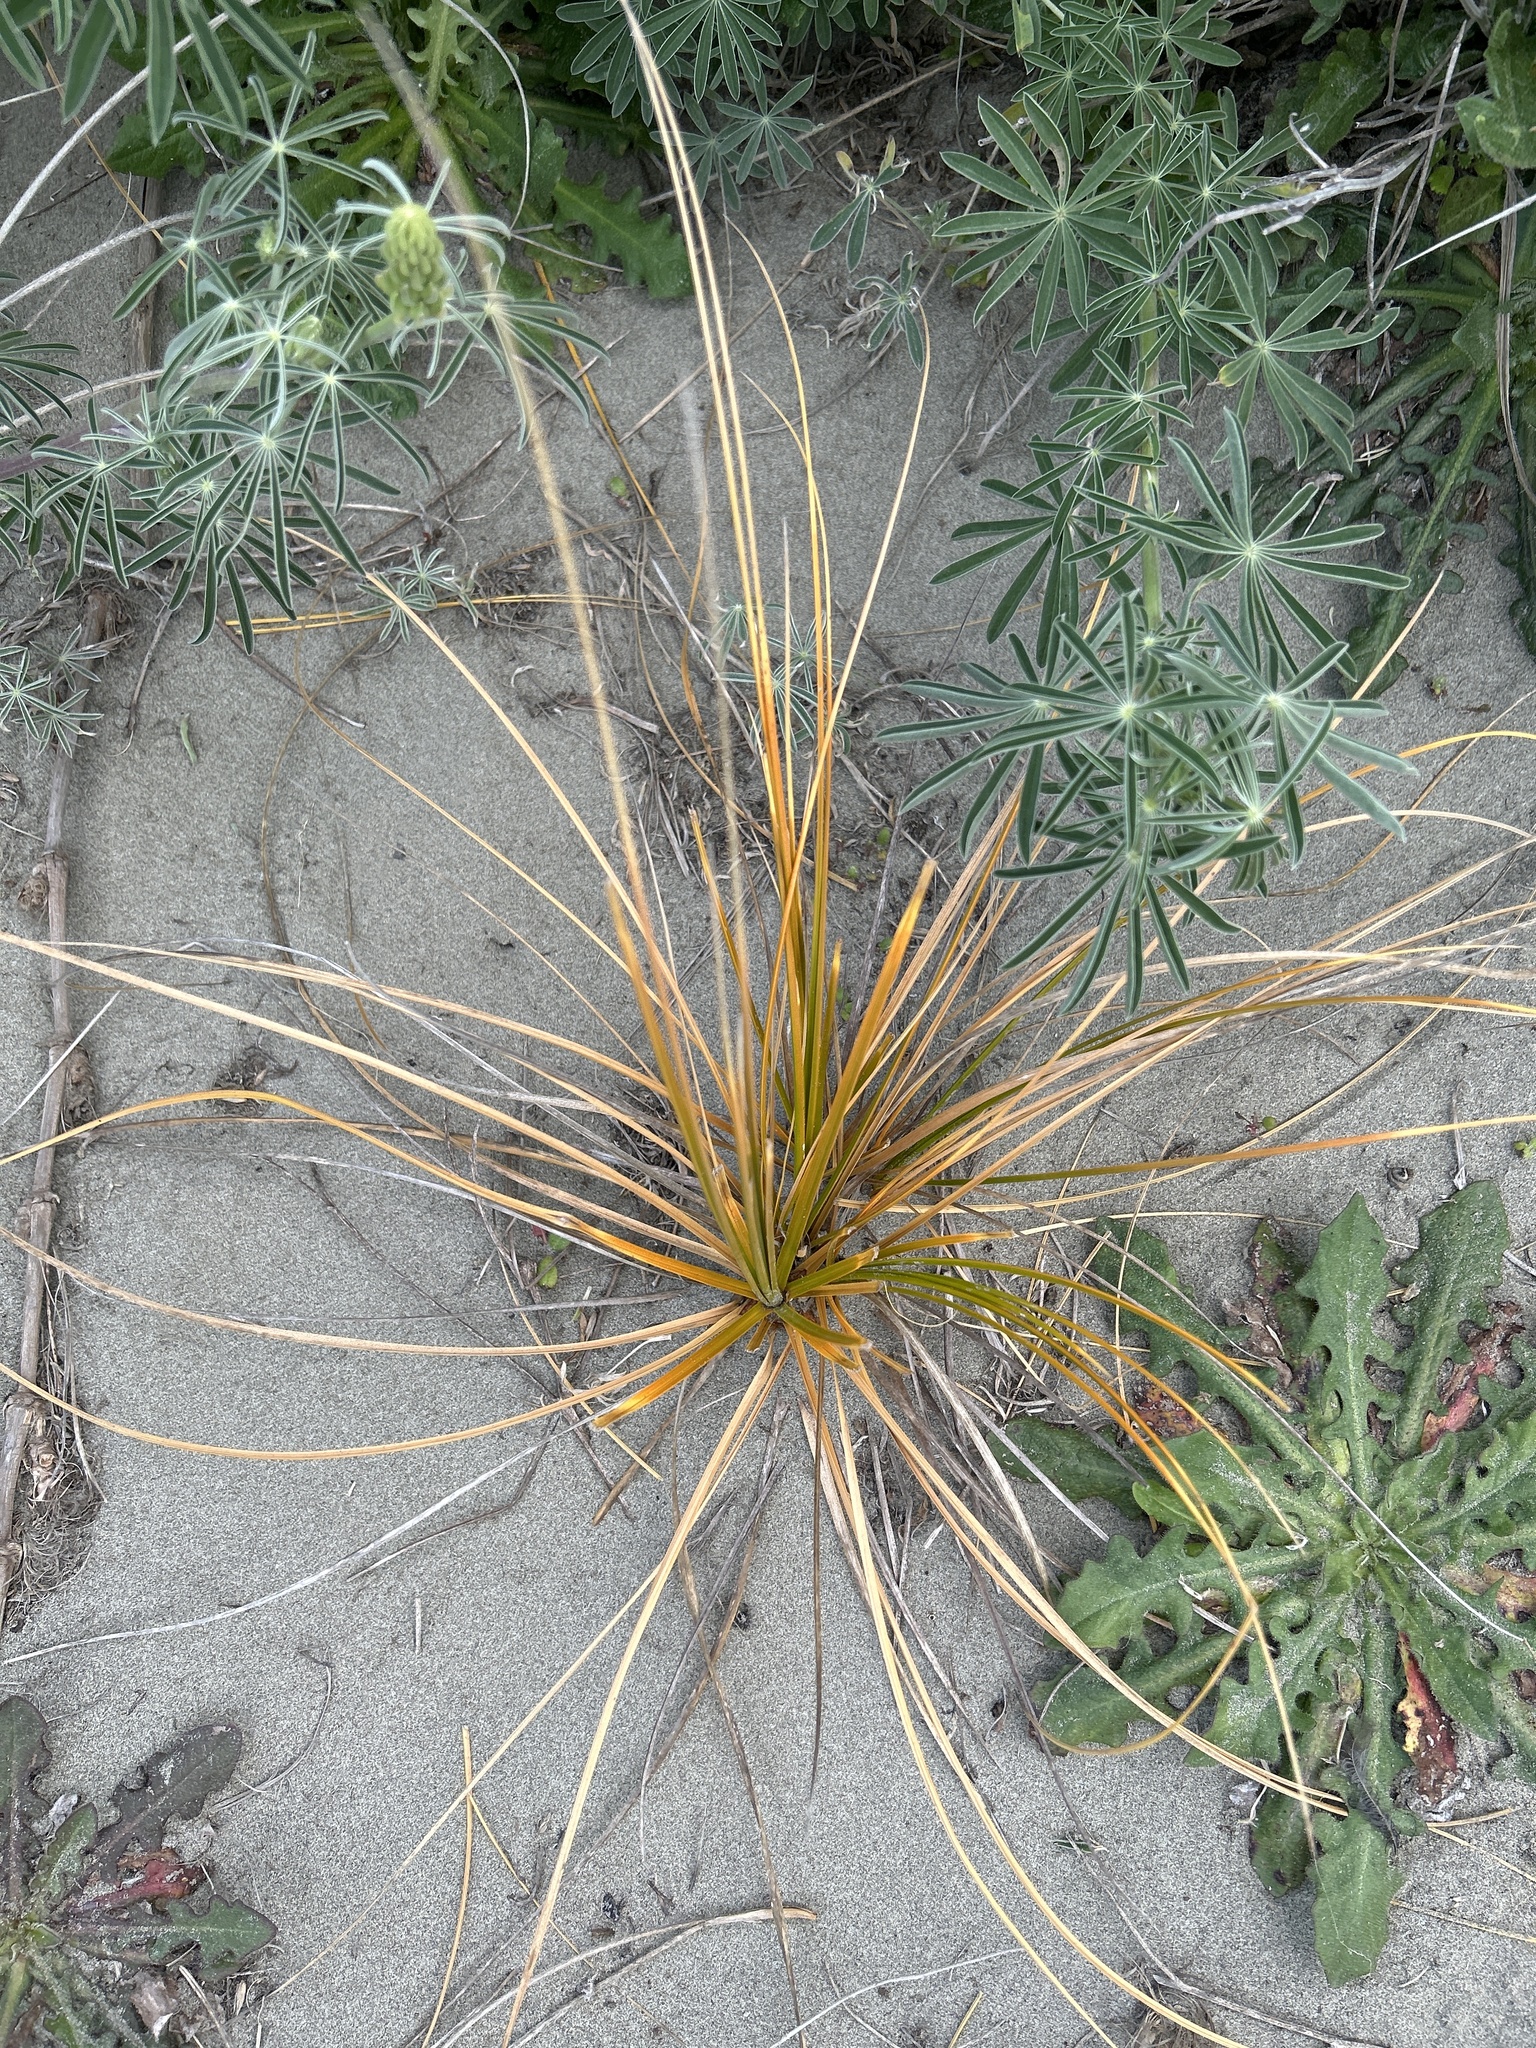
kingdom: Plantae
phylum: Tracheophyta
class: Liliopsida
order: Poales
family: Cyperaceae
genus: Ficinia
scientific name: Ficinia spiralis
